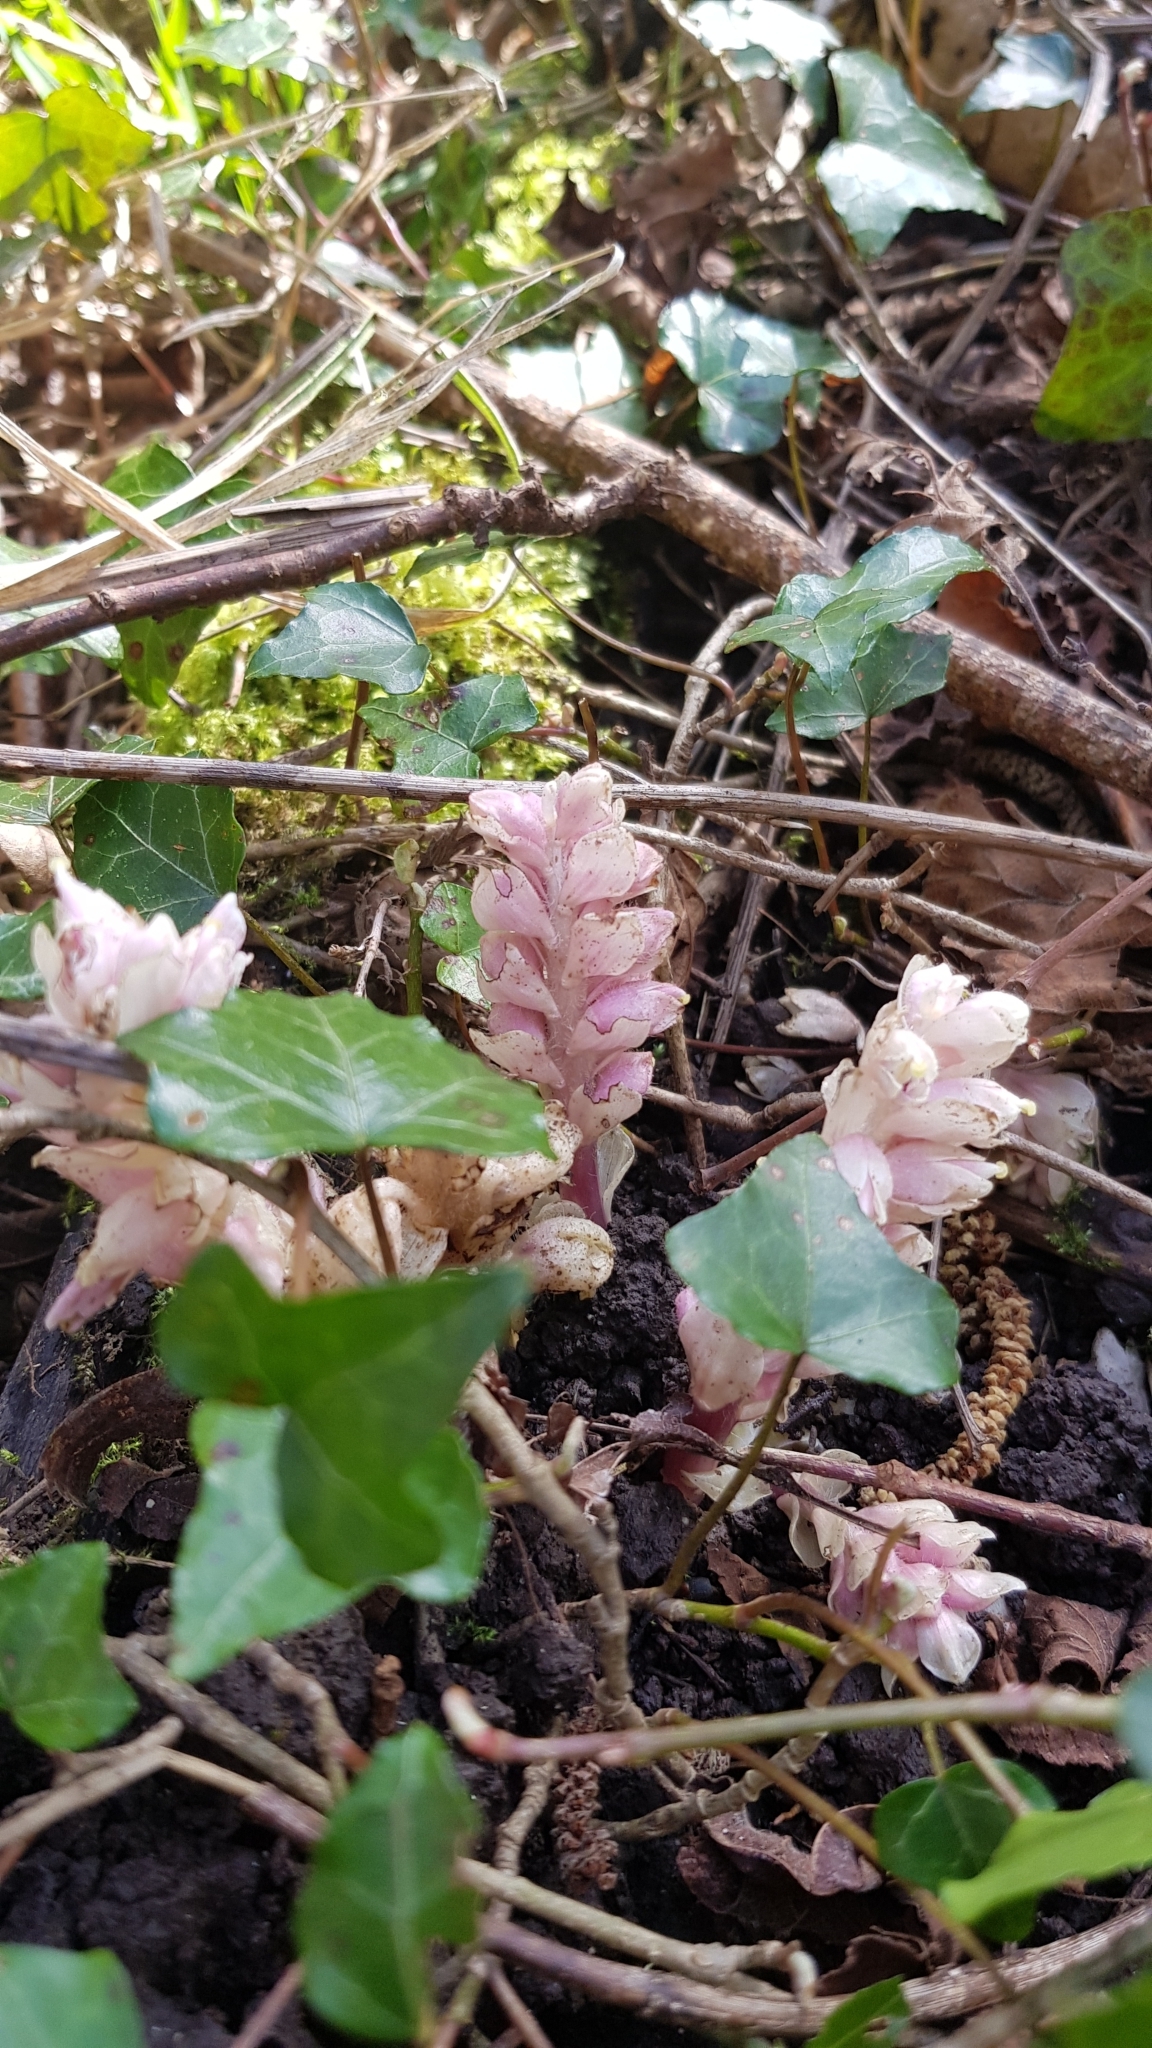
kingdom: Plantae
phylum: Tracheophyta
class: Magnoliopsida
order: Lamiales
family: Orobanchaceae
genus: Lathraea
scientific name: Lathraea squamaria
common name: Toothwort
